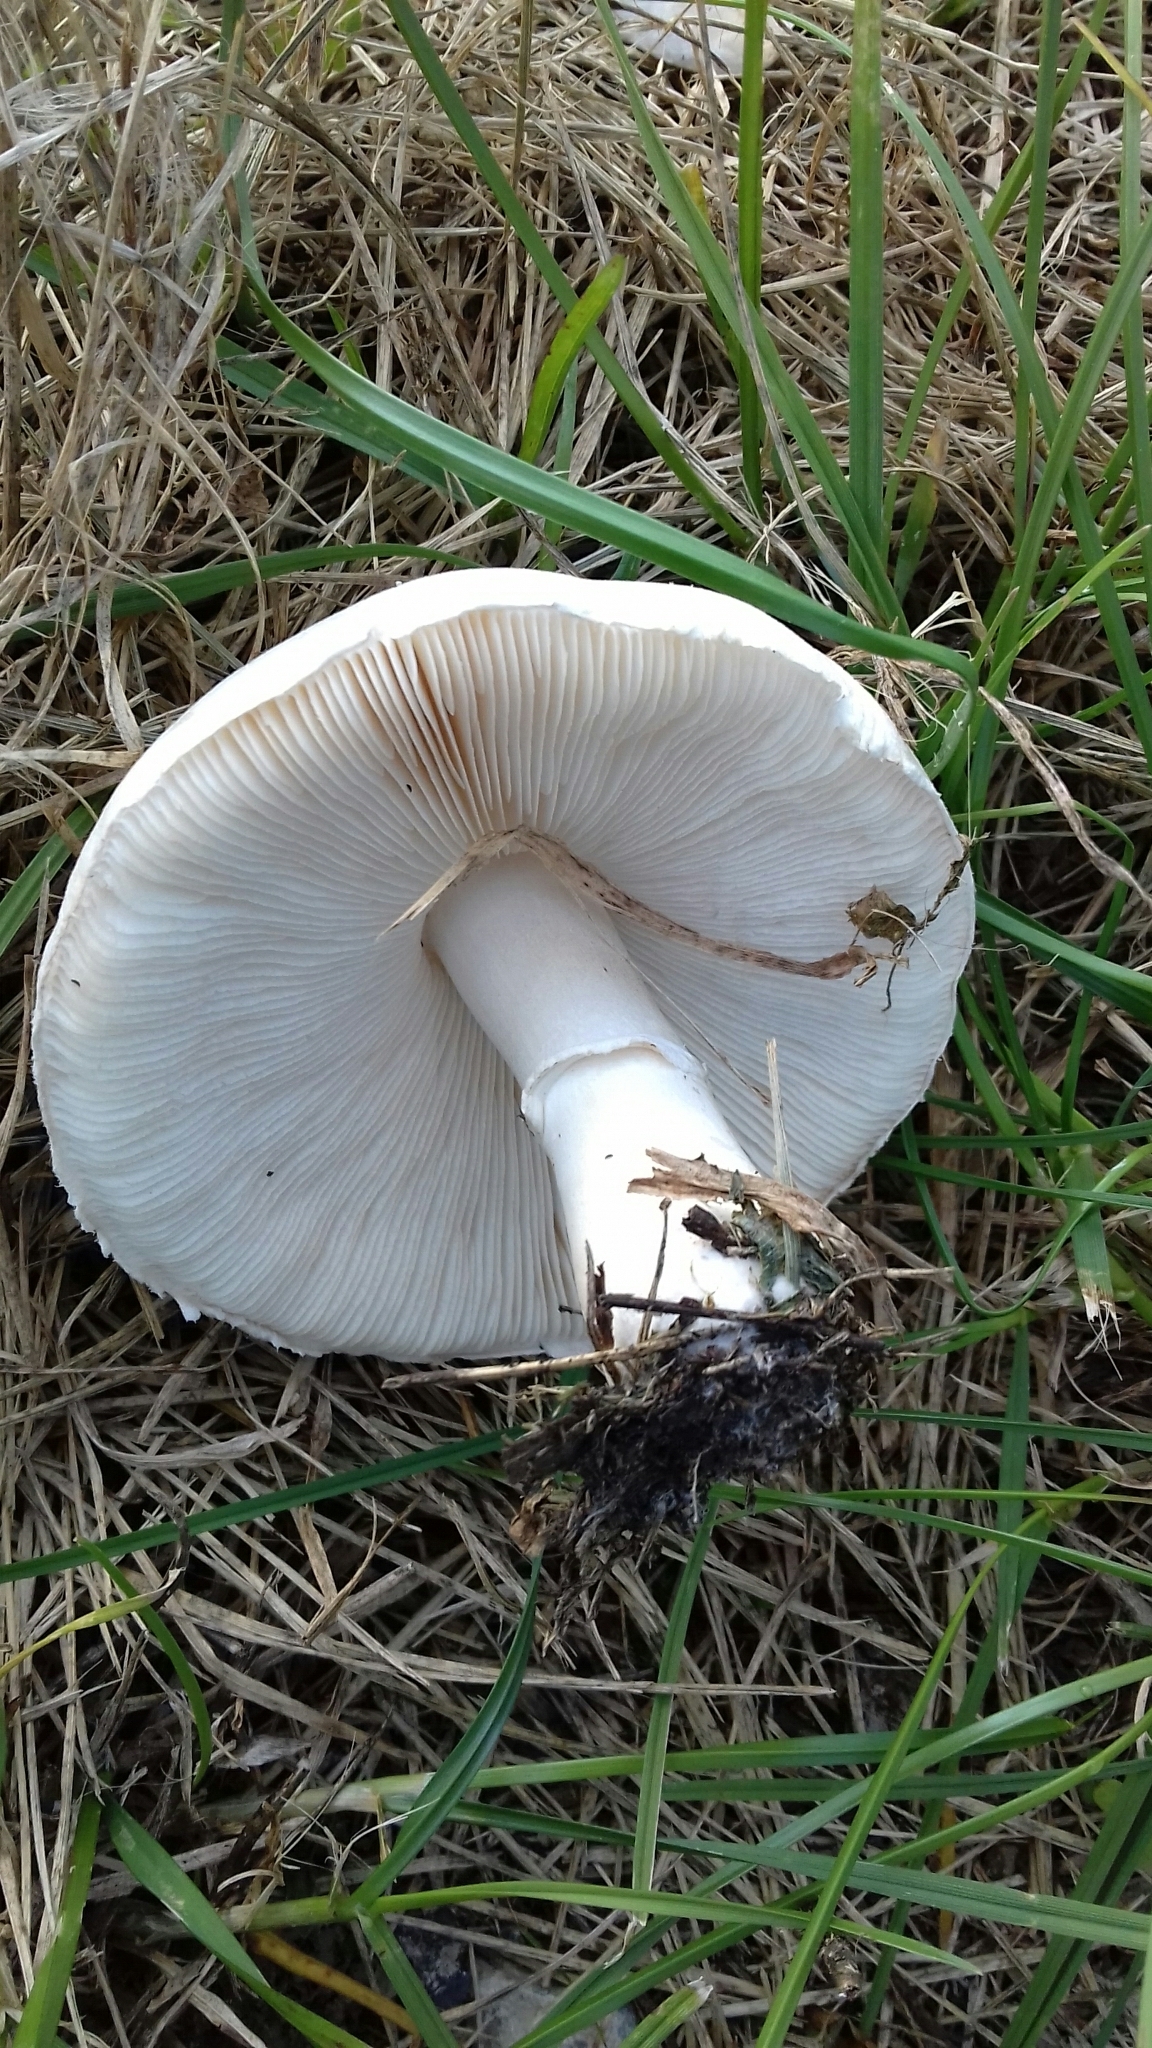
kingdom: Fungi
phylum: Basidiomycota
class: Agaricomycetes
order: Agaricales
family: Agaricaceae
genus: Leucoagaricus
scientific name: Leucoagaricus leucothites
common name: White dapperling
